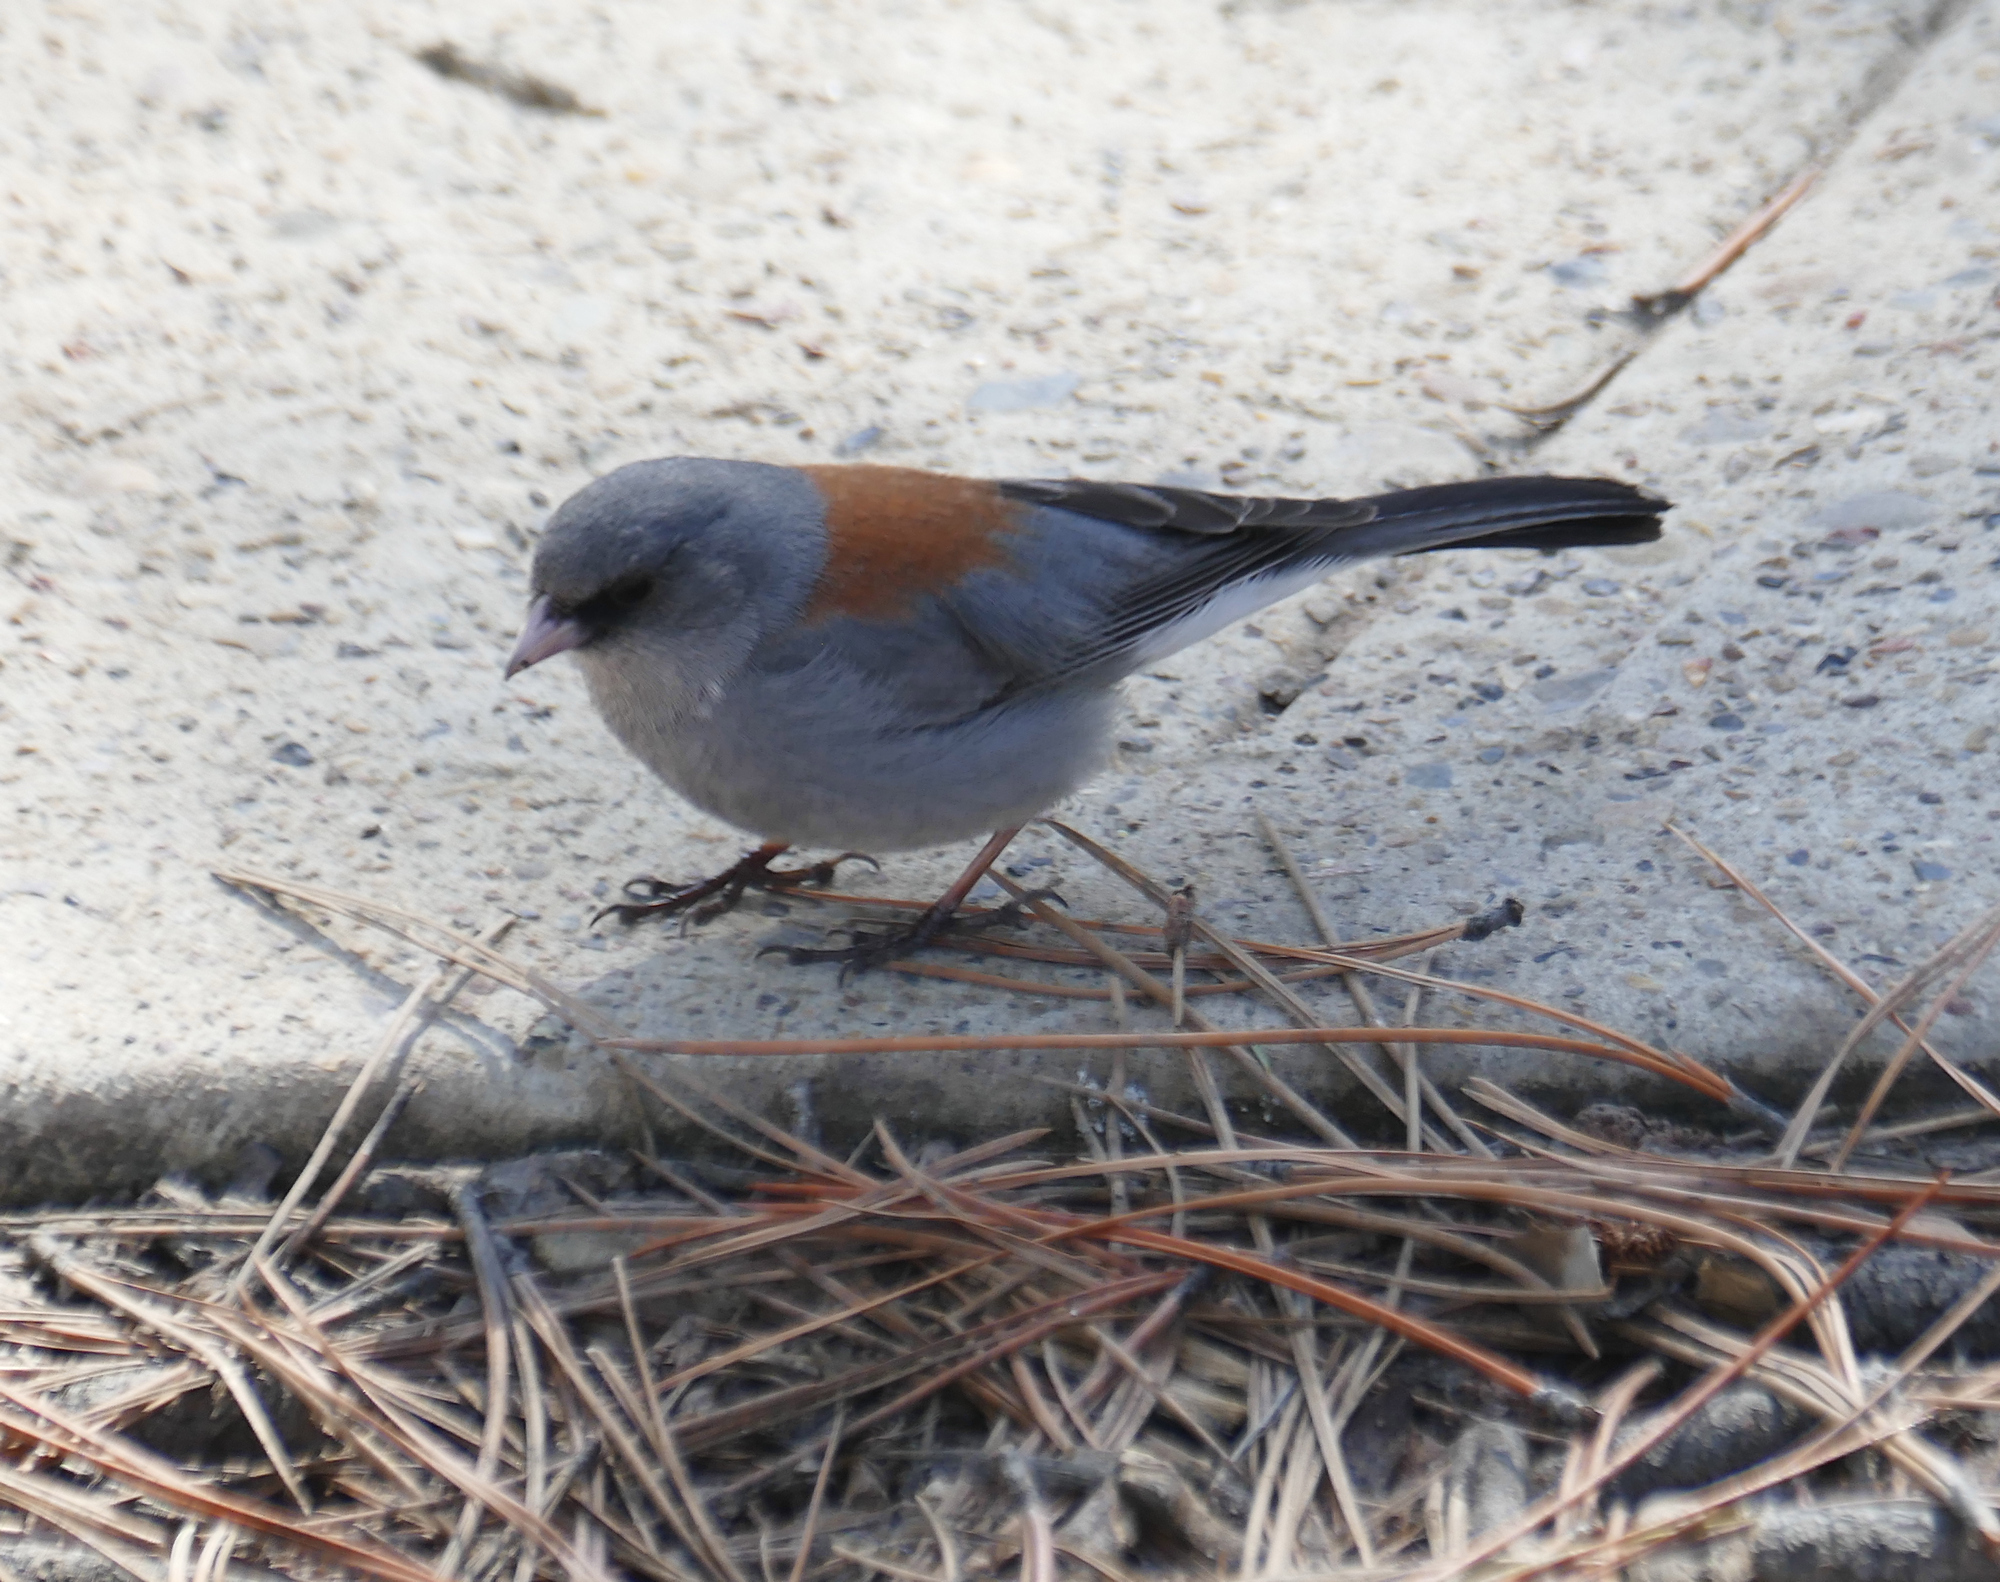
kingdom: Animalia
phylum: Chordata
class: Aves
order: Passeriformes
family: Passerellidae
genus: Junco
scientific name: Junco hyemalis
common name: Dark-eyed junco
